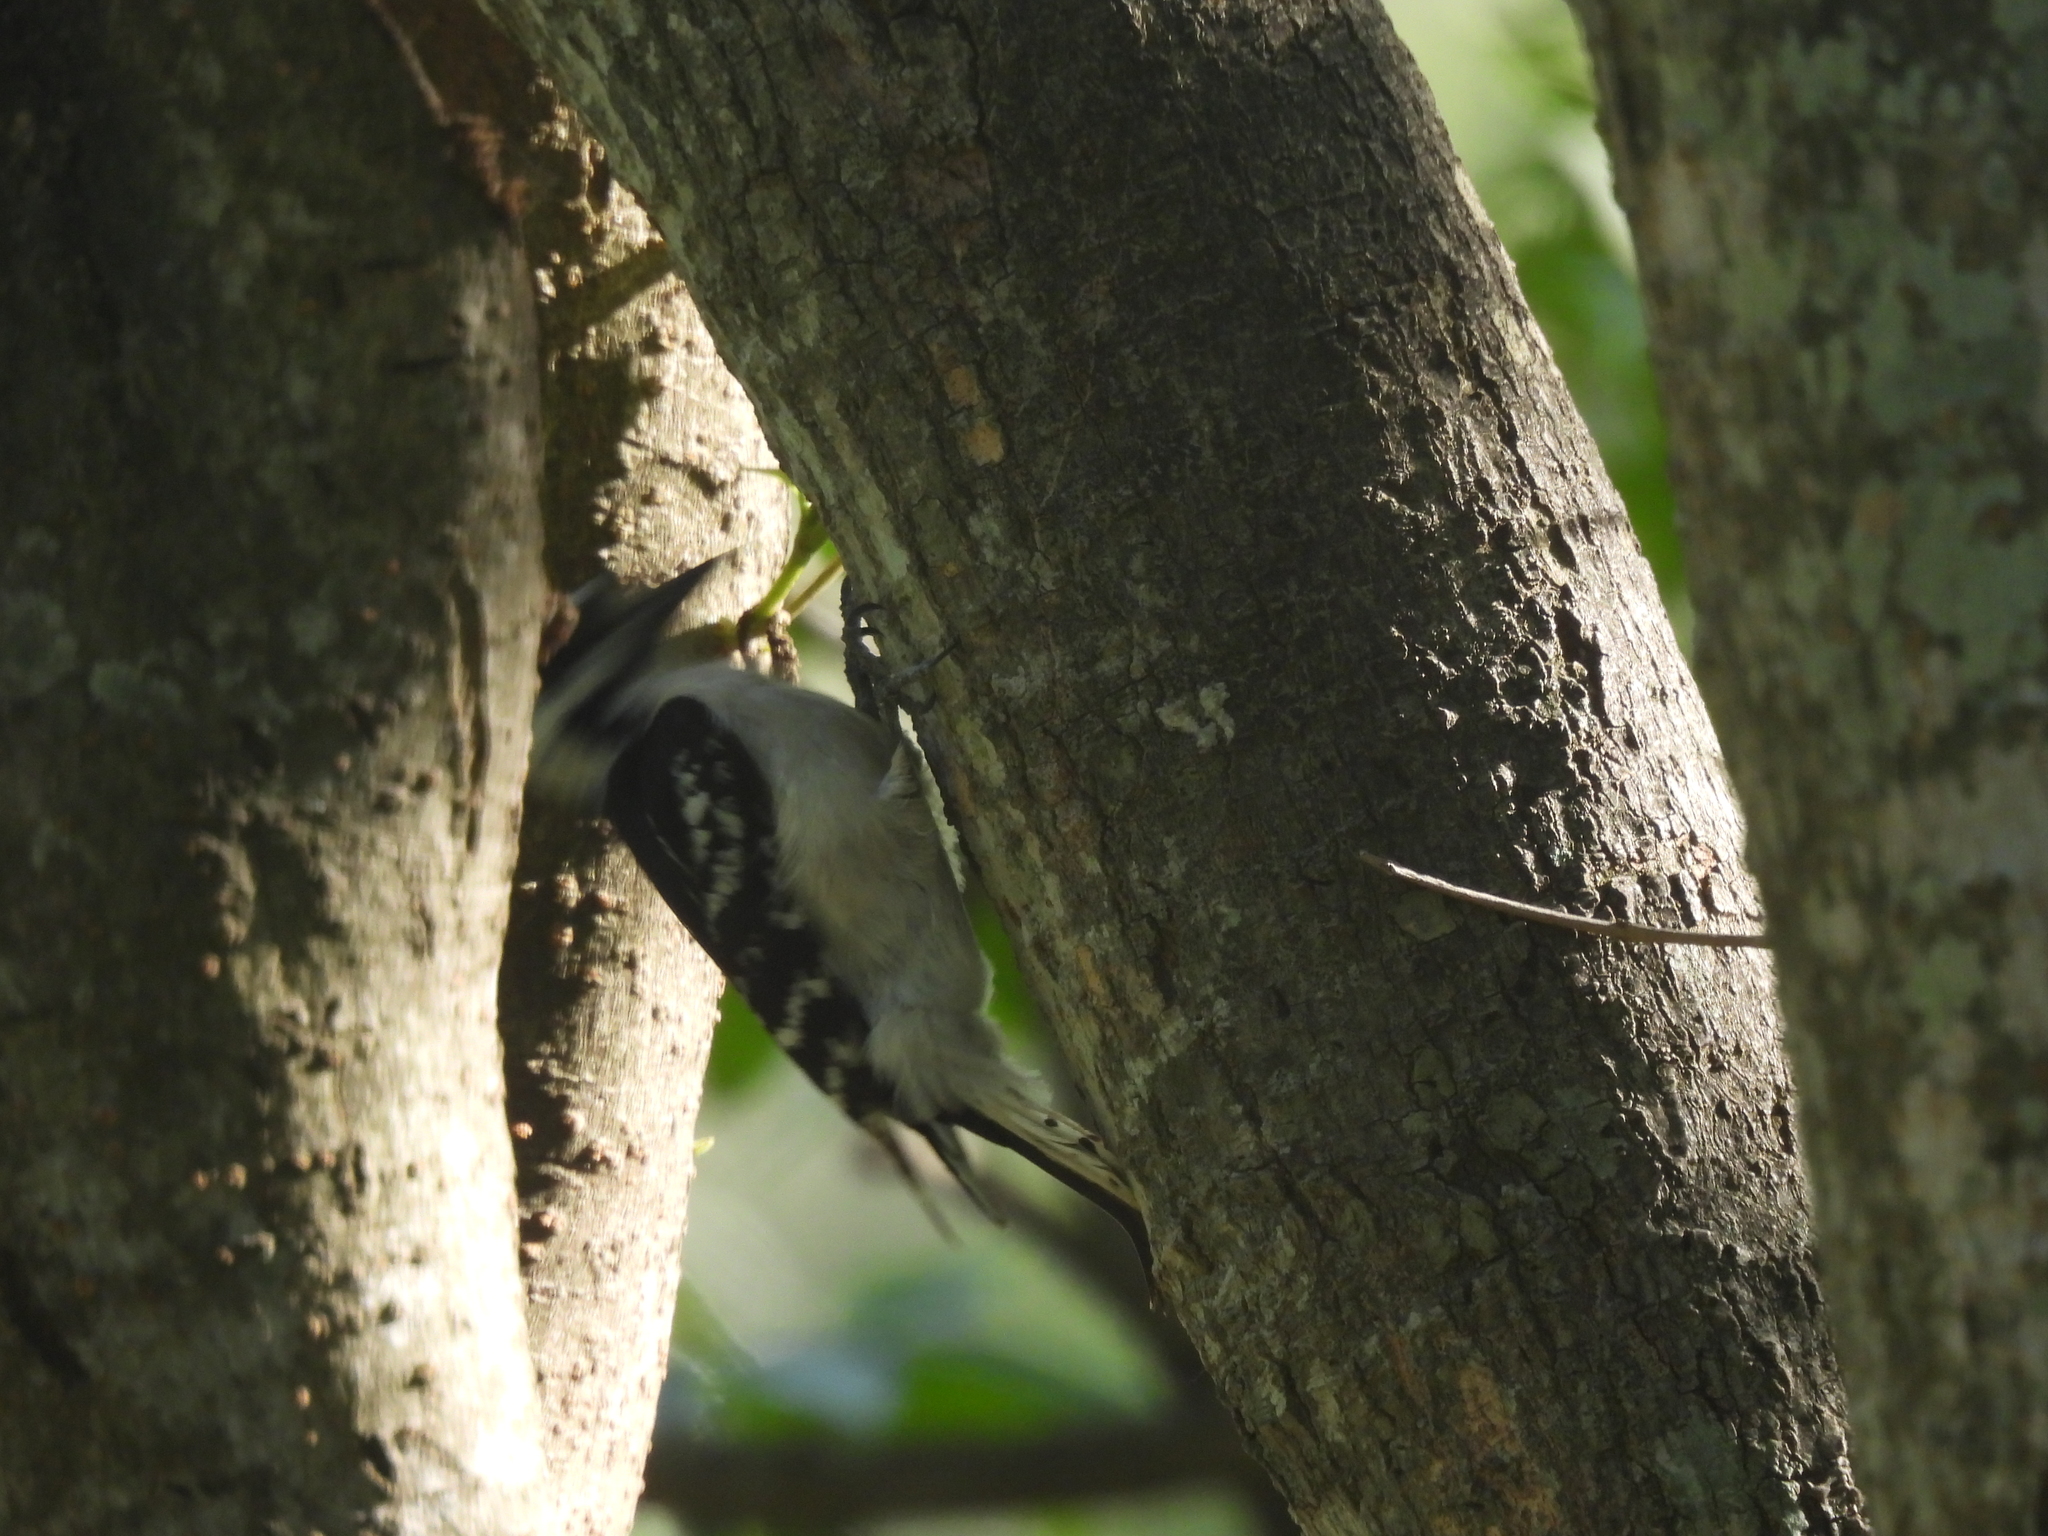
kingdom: Animalia
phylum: Chordata
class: Aves
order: Piciformes
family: Picidae
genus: Dryobates
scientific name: Dryobates pubescens
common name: Downy woodpecker
